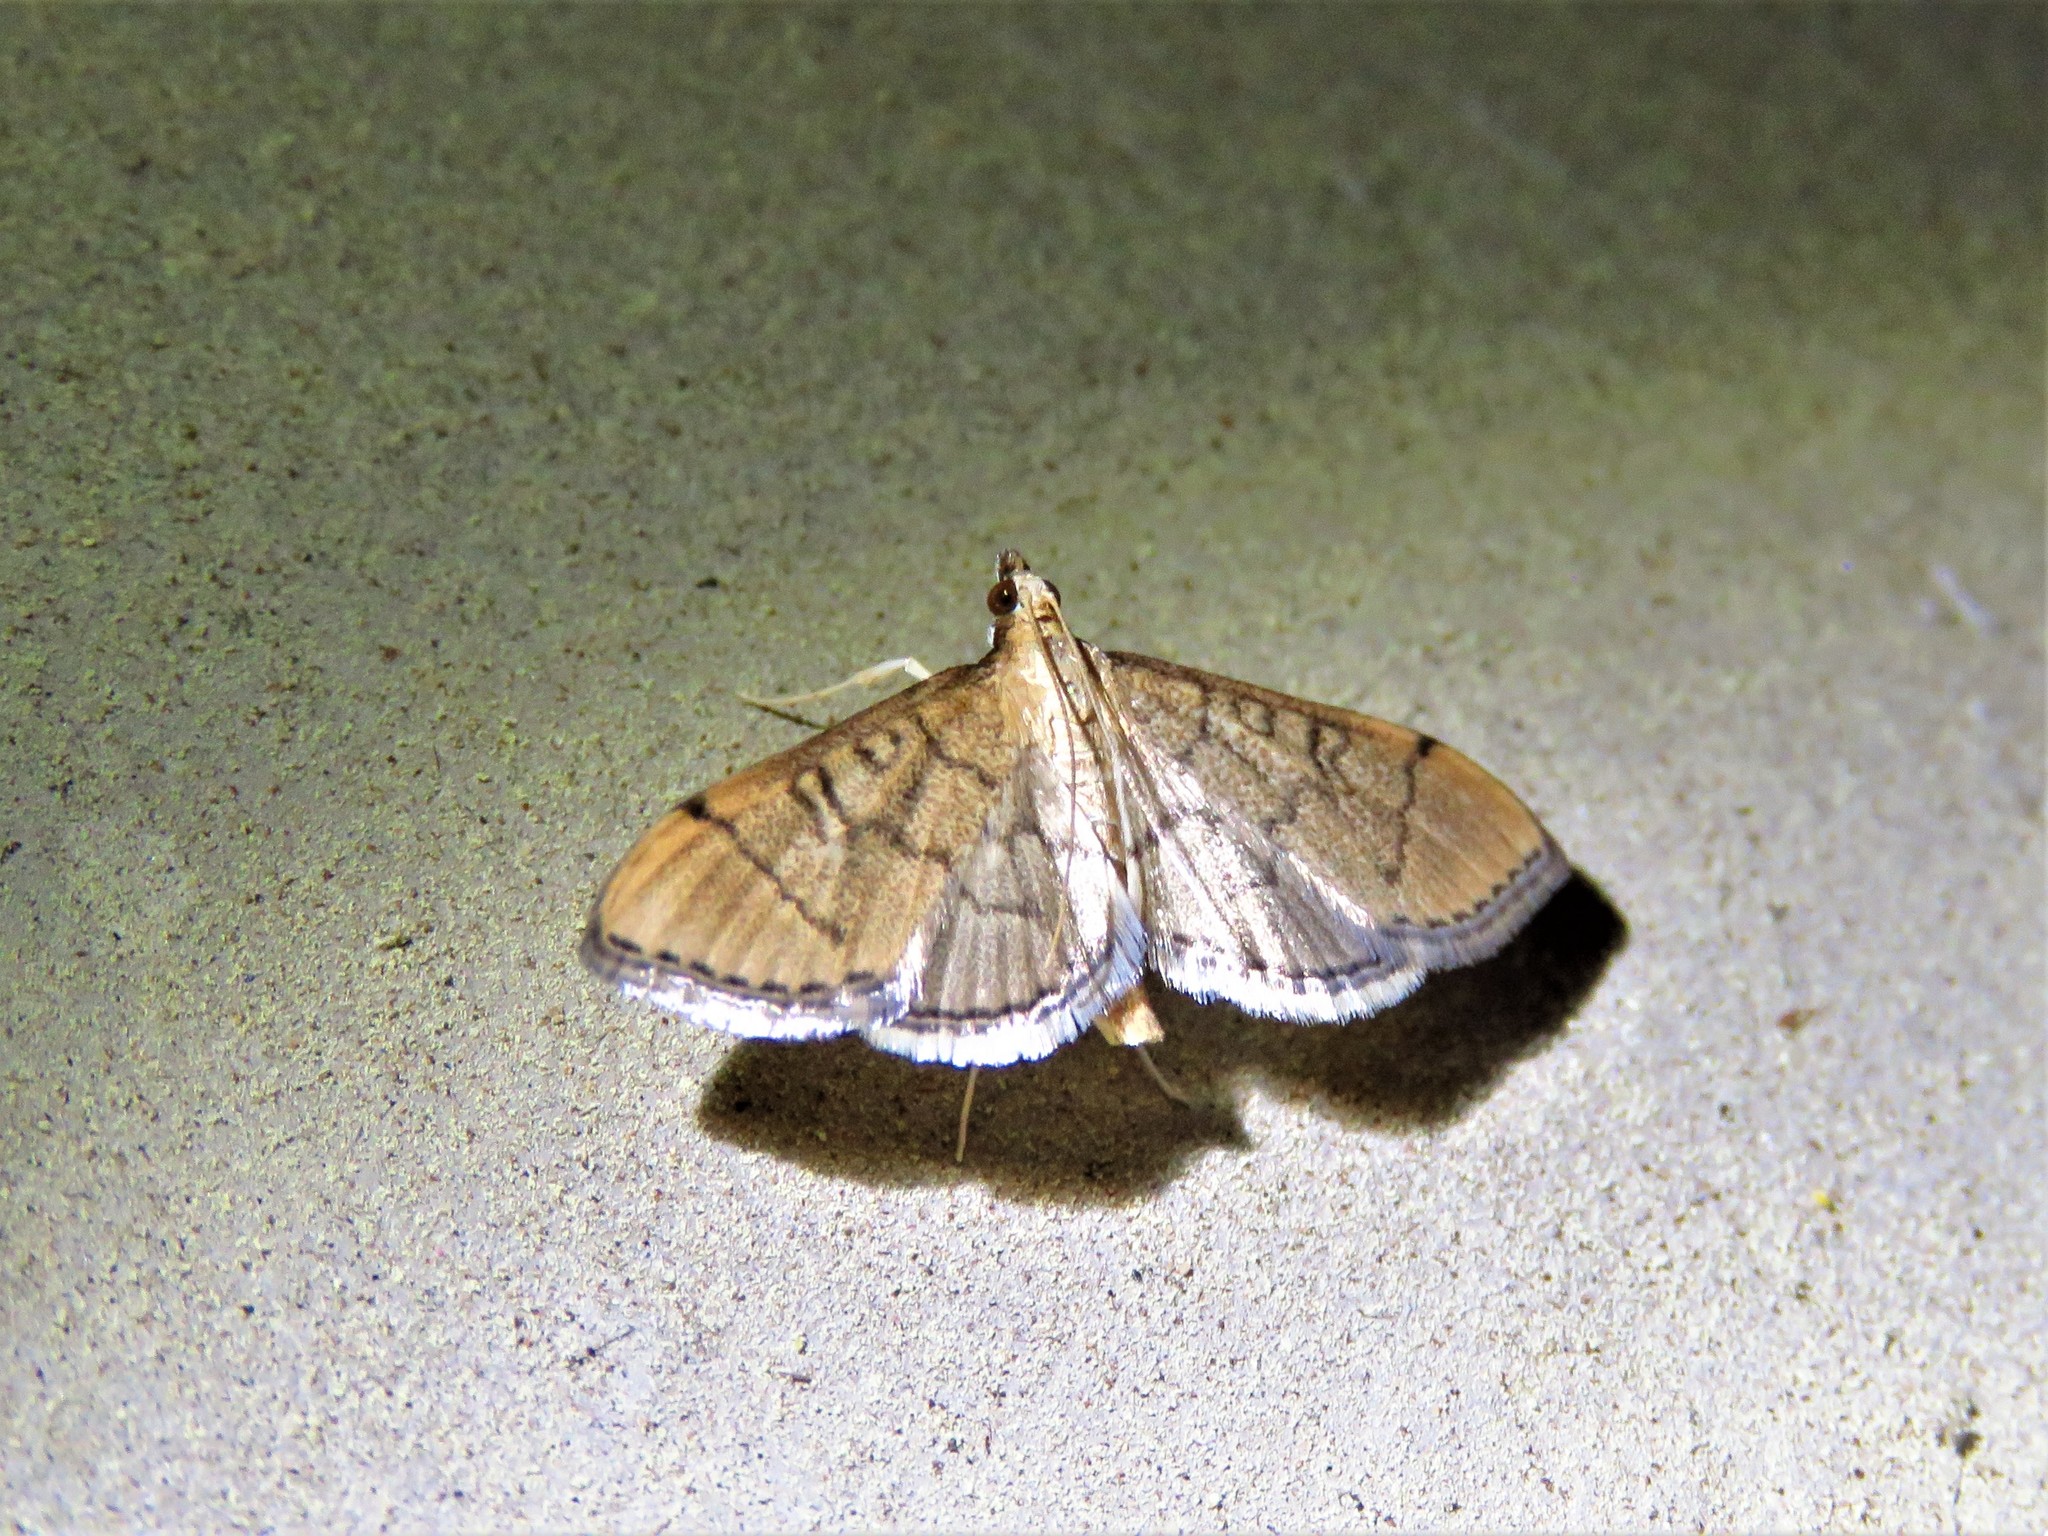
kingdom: Animalia
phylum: Arthropoda
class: Insecta
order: Lepidoptera
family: Crambidae
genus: Lamprosema
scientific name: Lamprosema Blepharomastix ranalis
